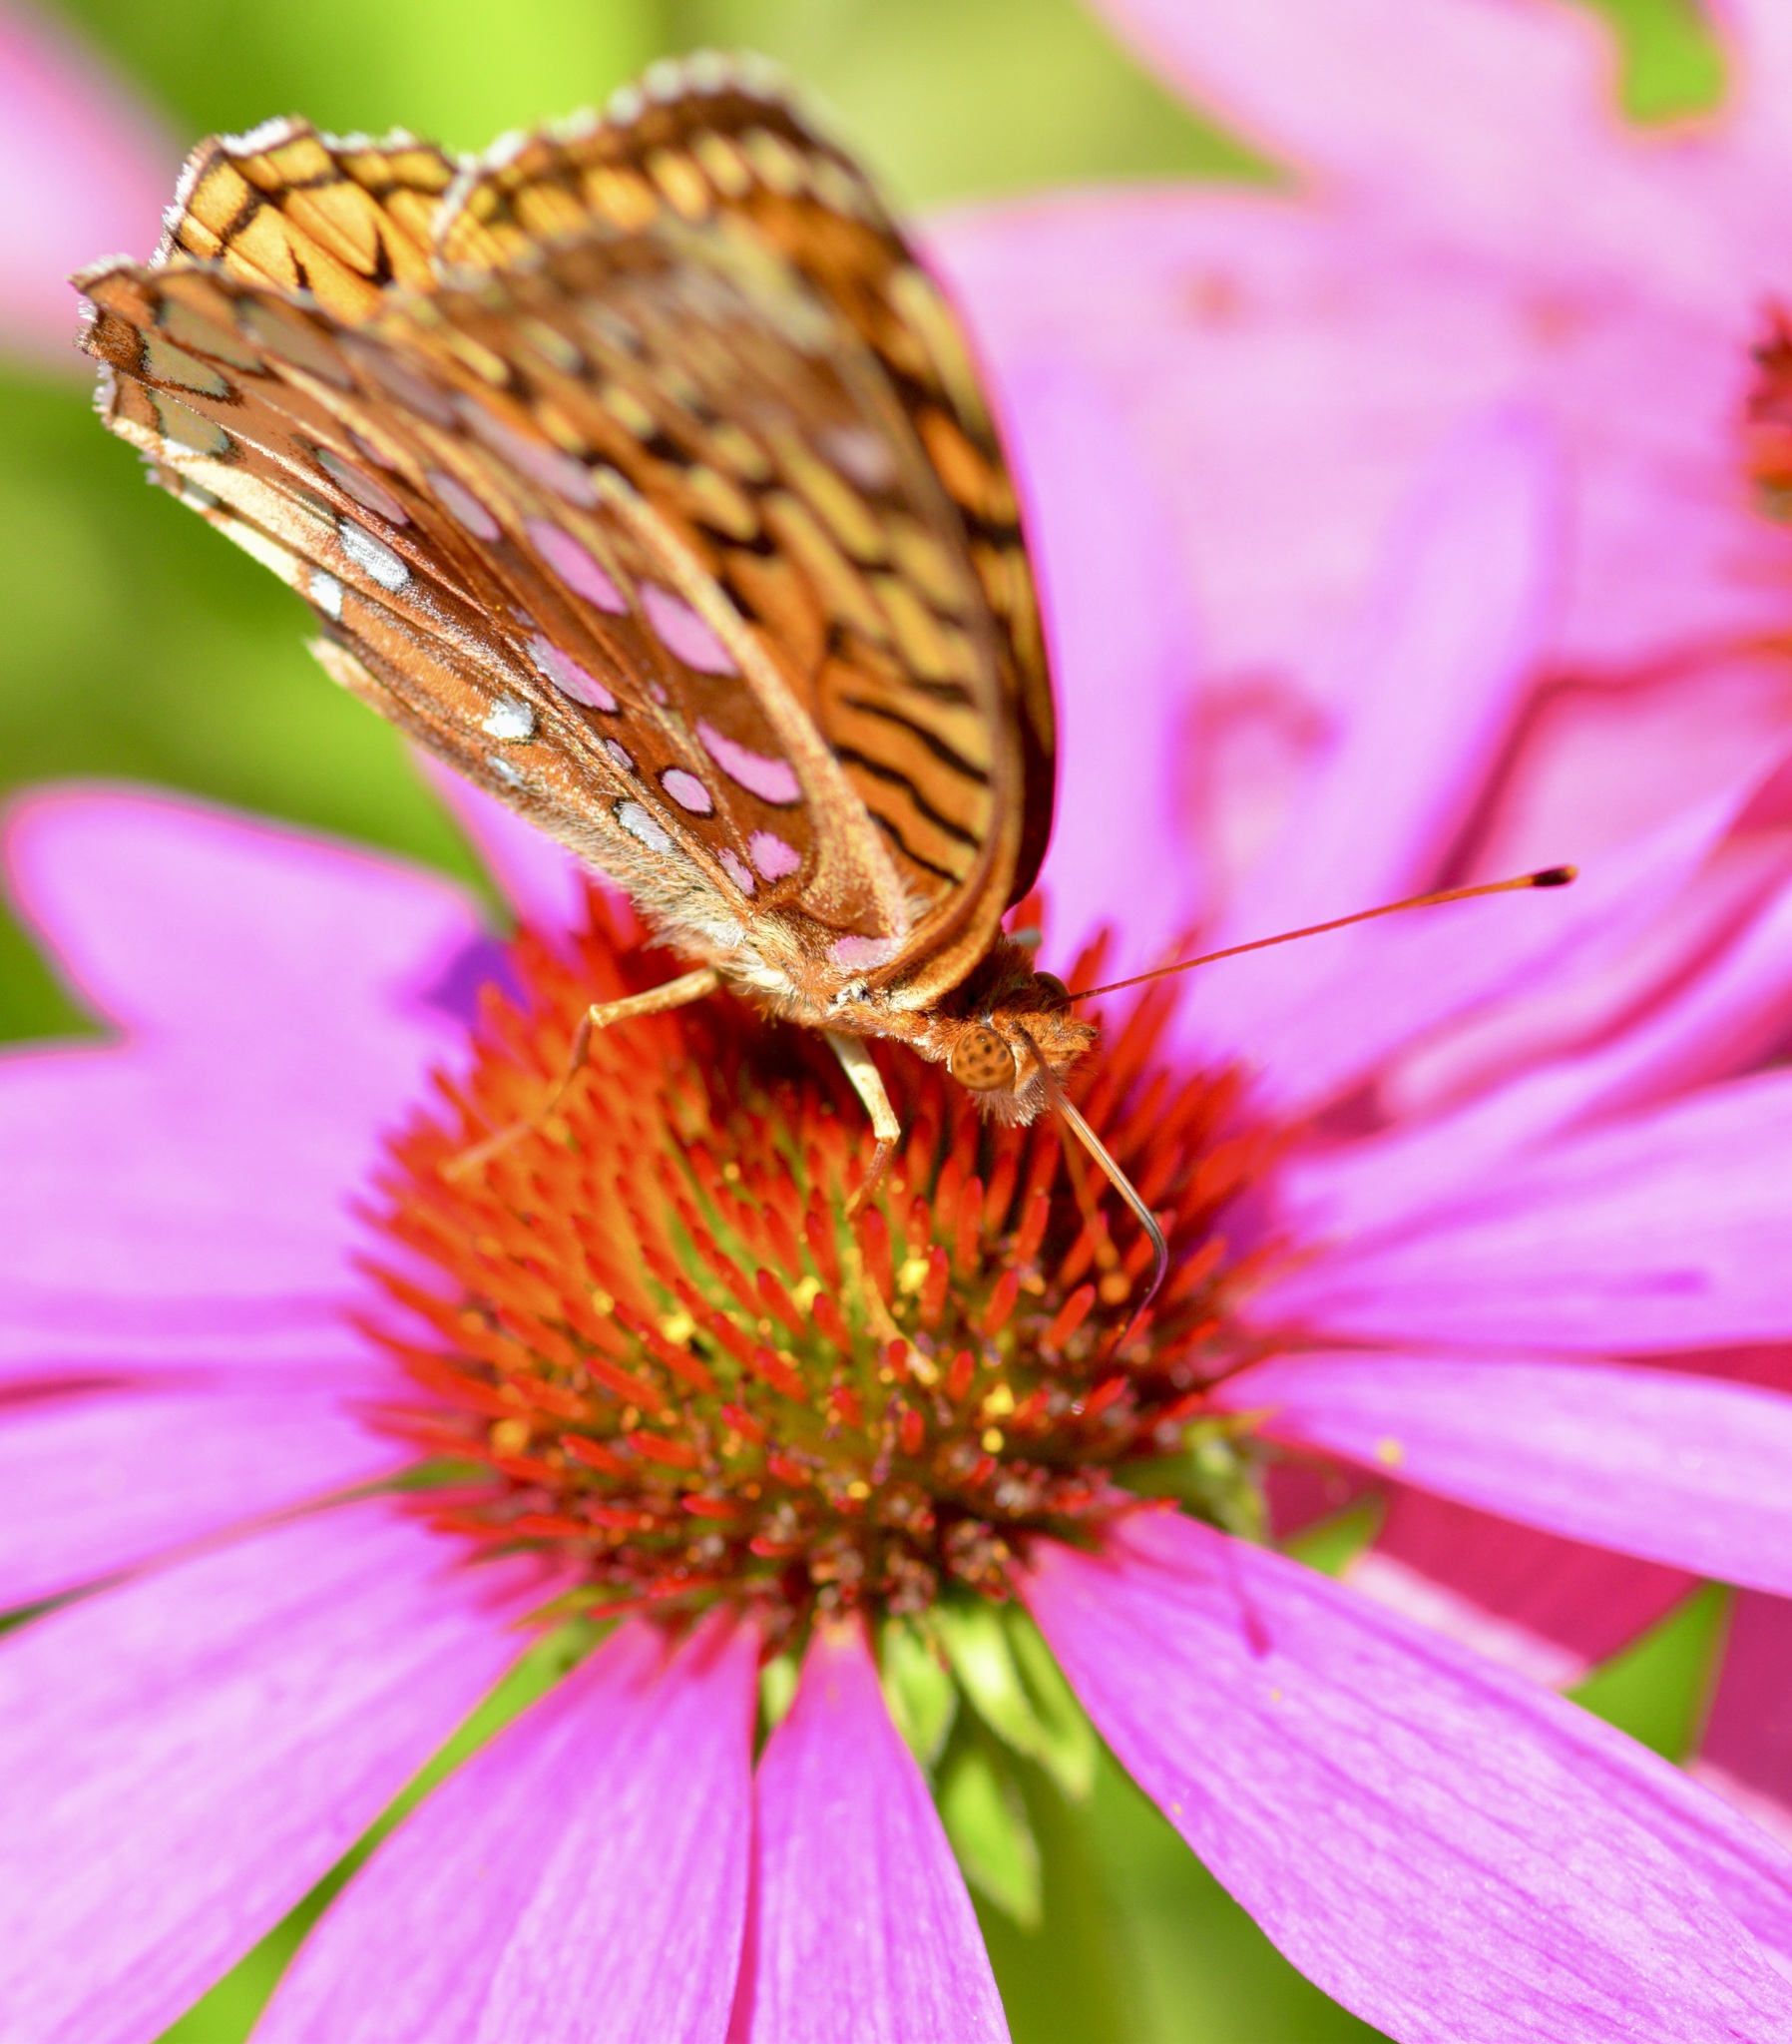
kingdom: Animalia
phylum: Arthropoda
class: Insecta
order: Lepidoptera
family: Nymphalidae
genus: Speyeria
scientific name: Speyeria cybele
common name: Great spangled fritillary
